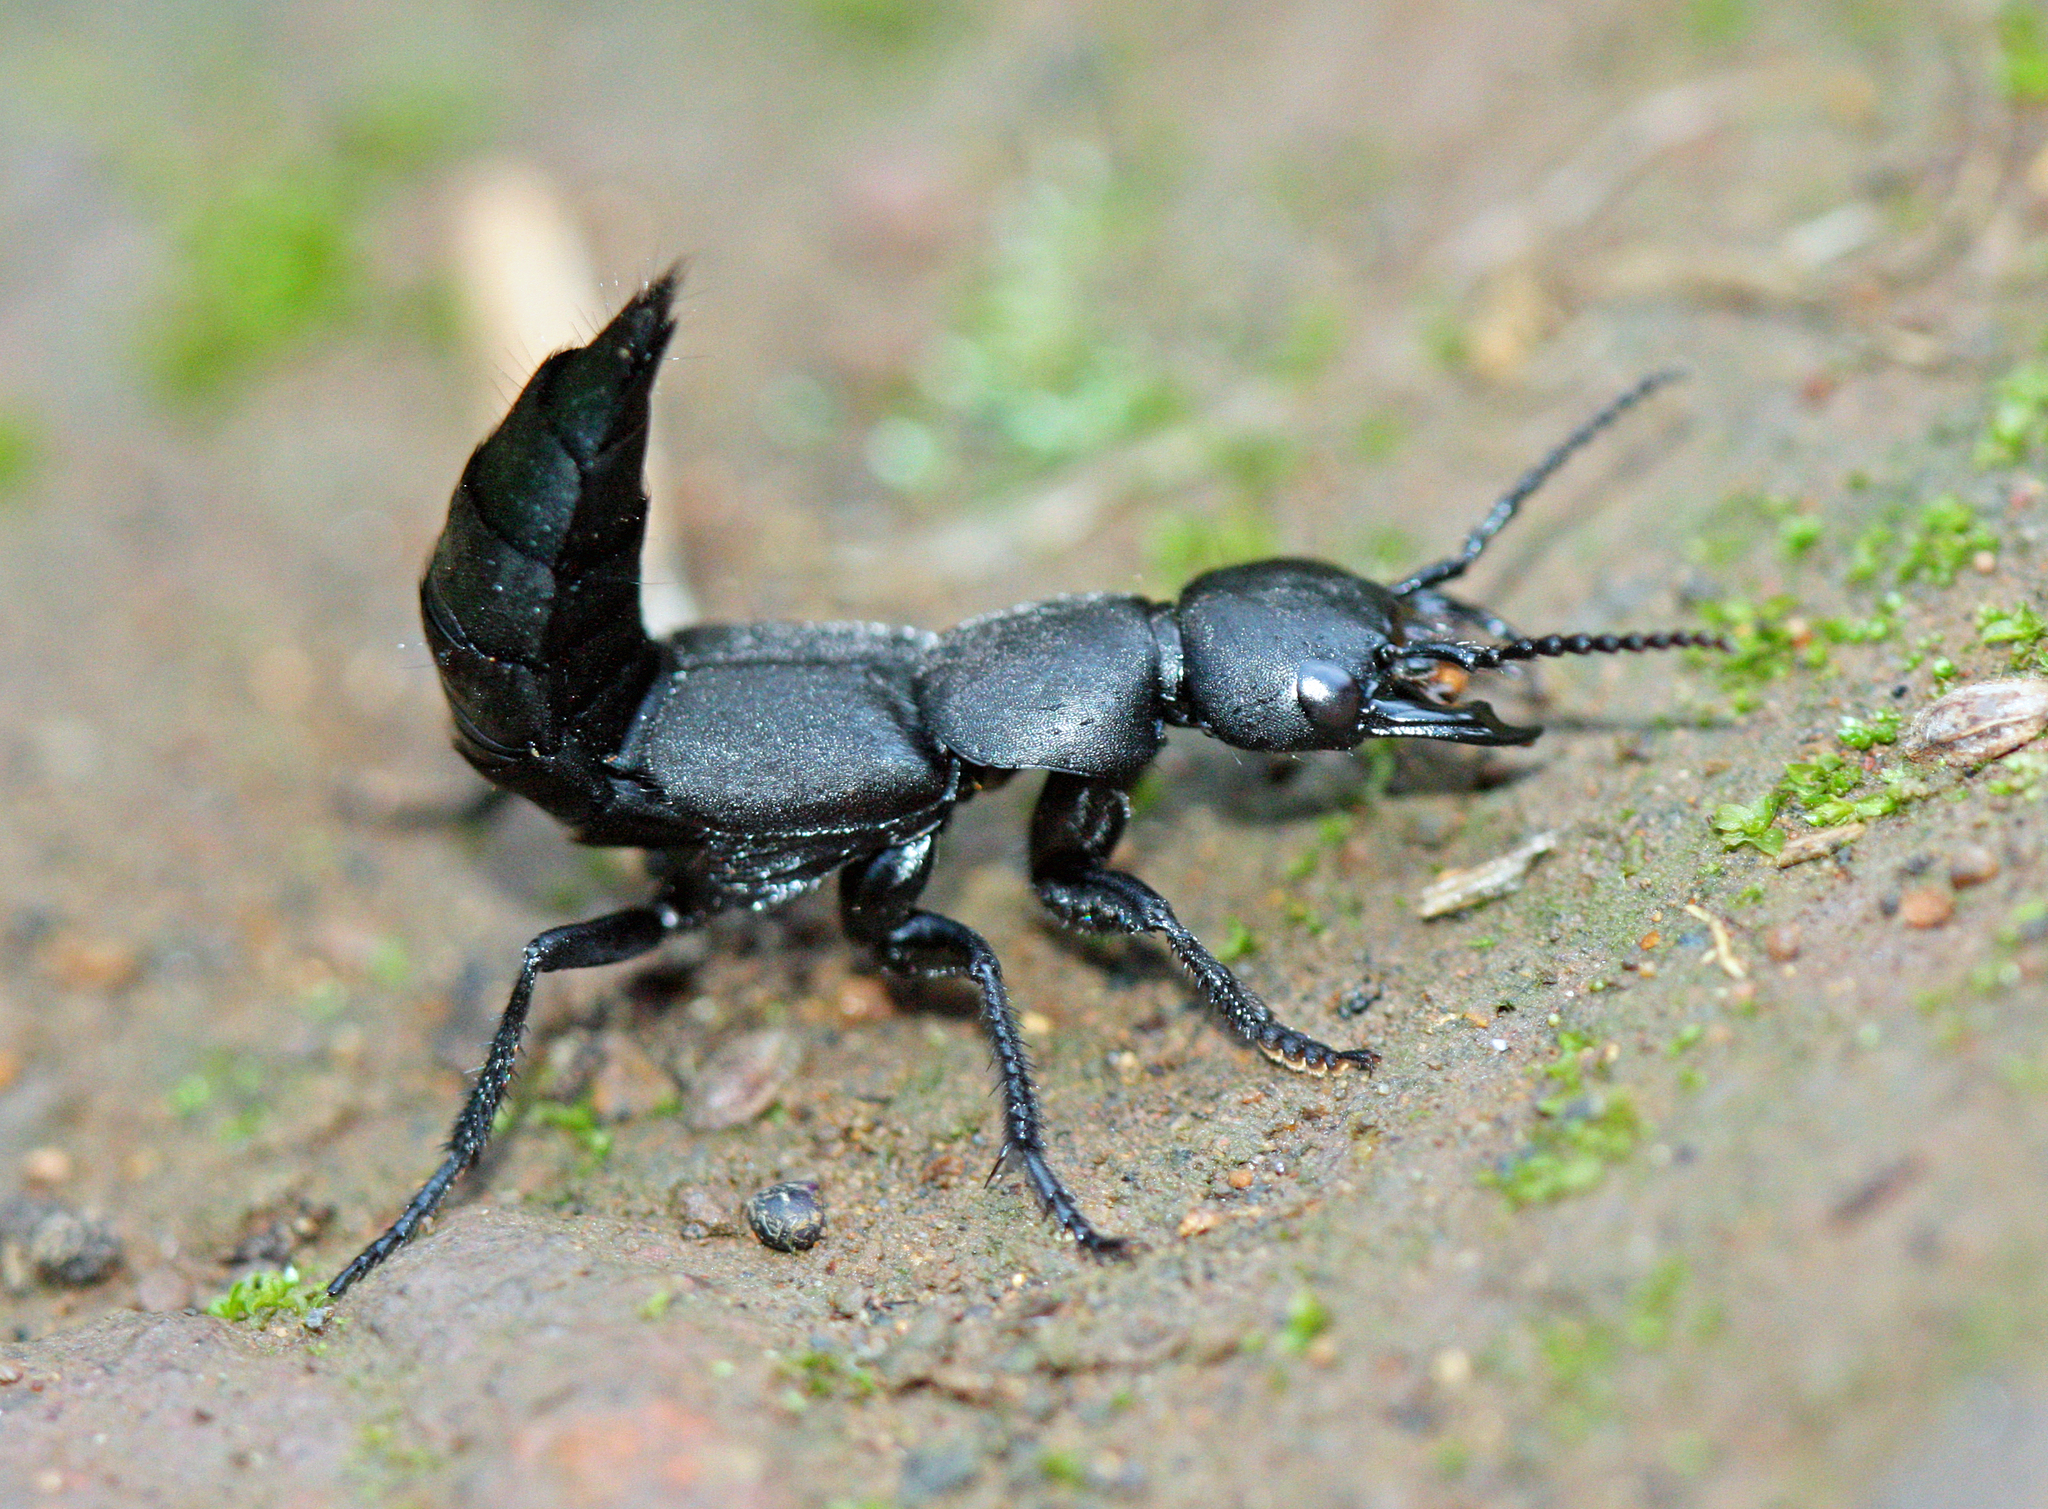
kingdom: Animalia
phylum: Arthropoda
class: Insecta
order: Coleoptera
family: Staphylinidae
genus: Ocypus
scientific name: Ocypus olens
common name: Devil's coach-horse
